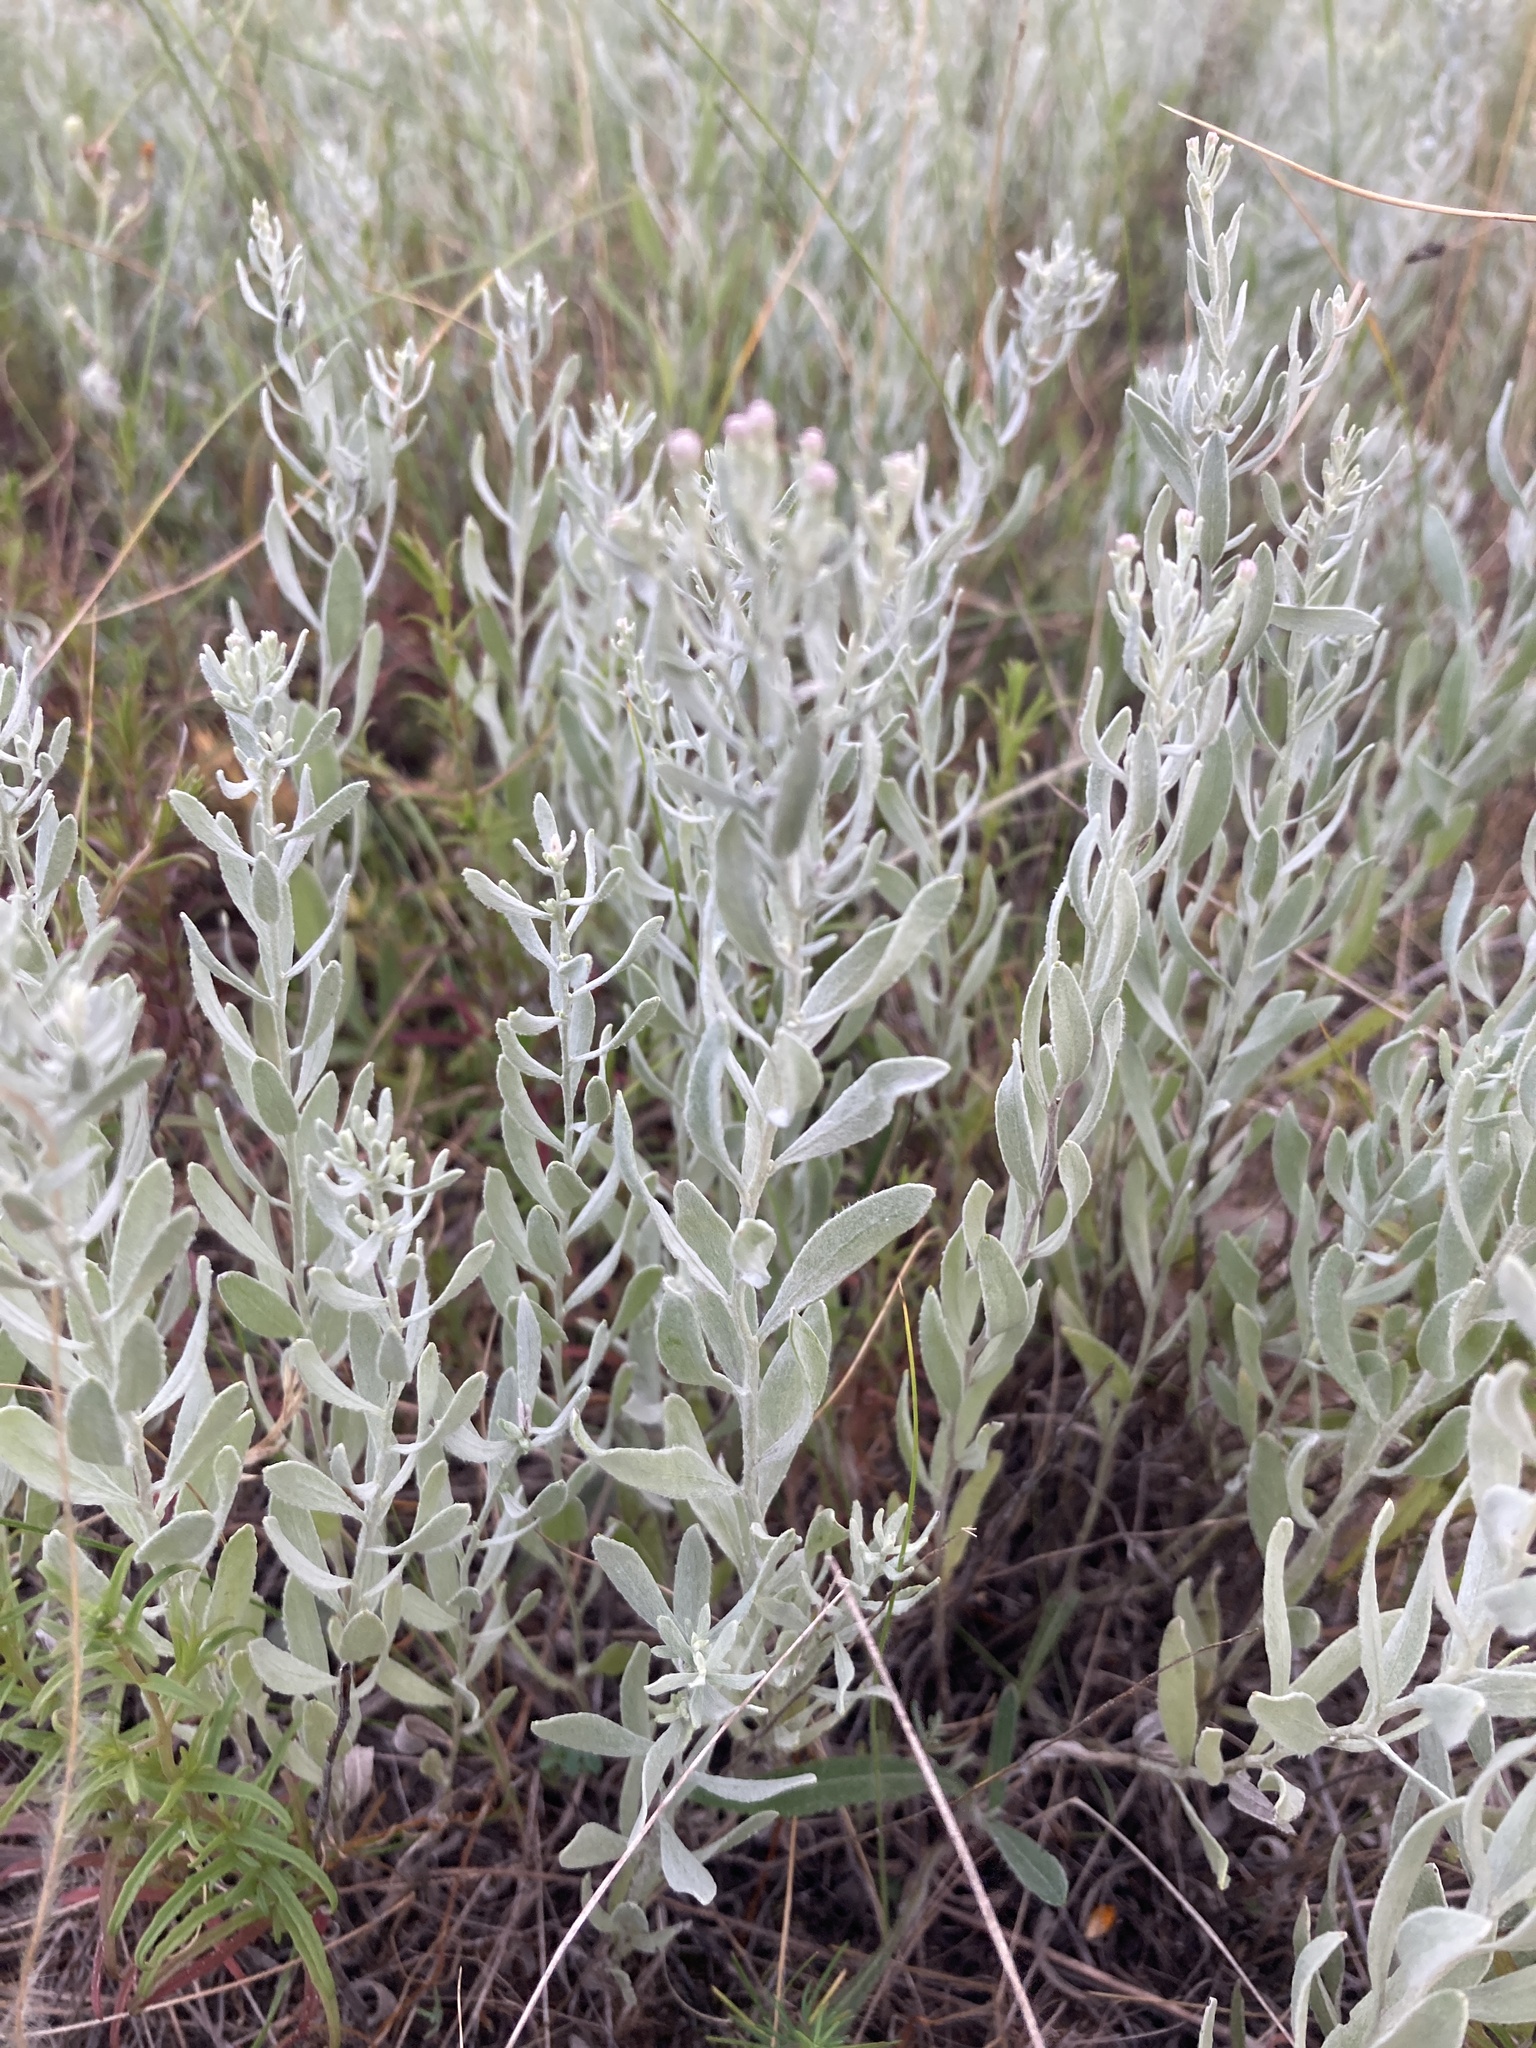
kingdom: Plantae
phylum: Tracheophyta
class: Magnoliopsida
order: Asterales
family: Asteraceae
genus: Galatella
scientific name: Galatella villosa
